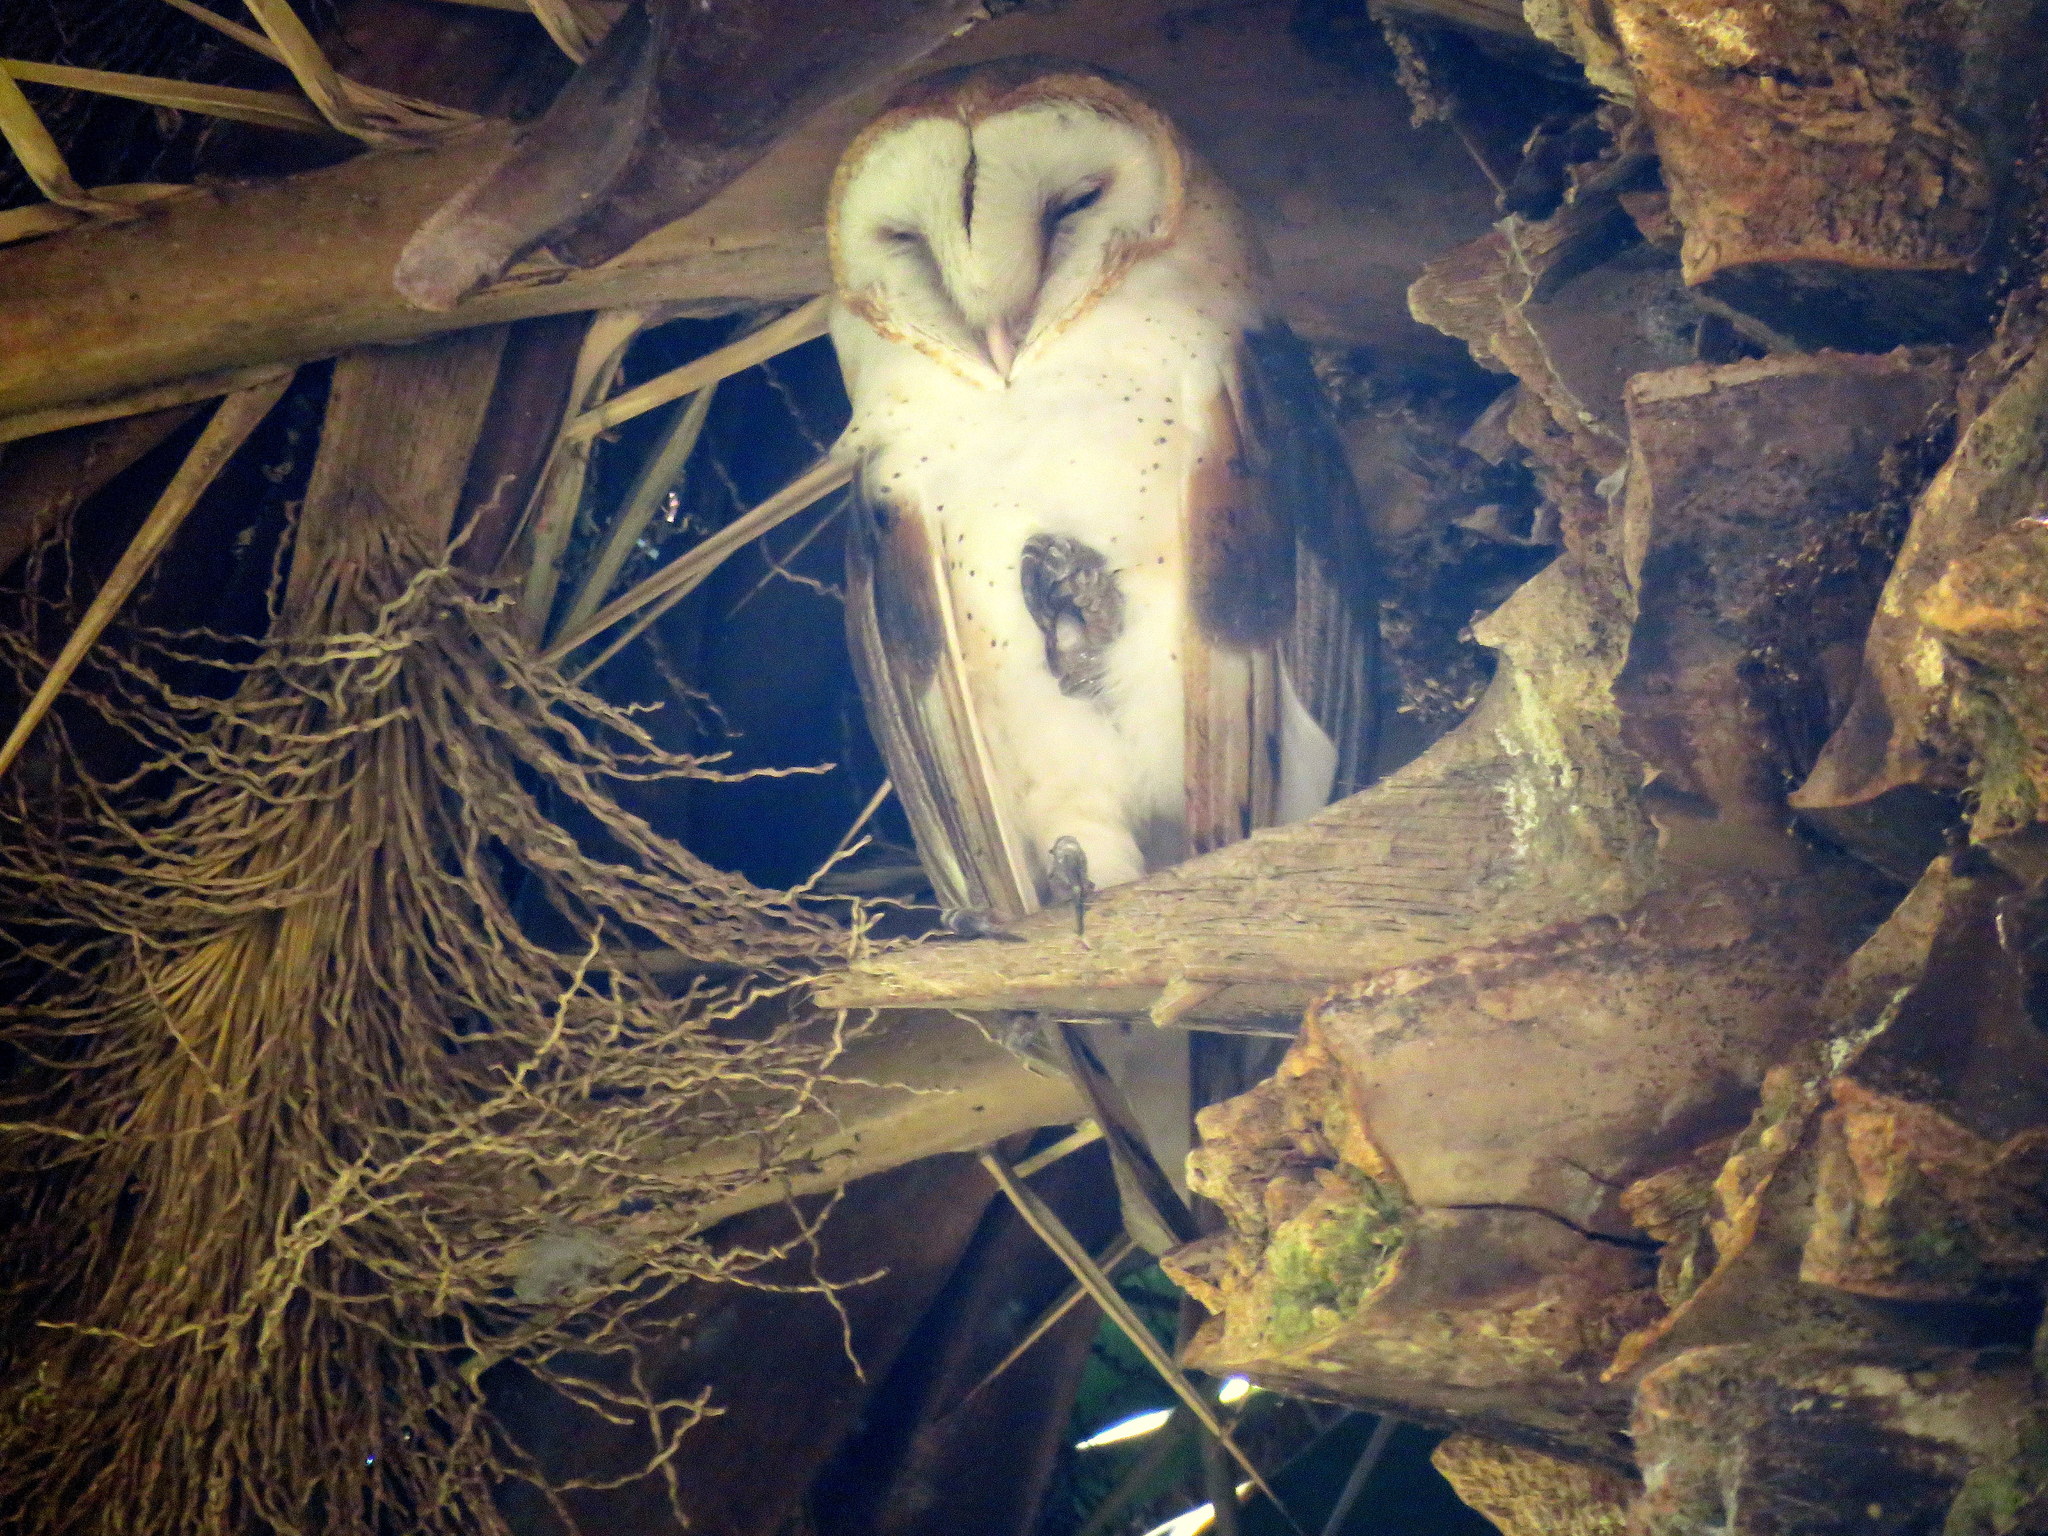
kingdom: Animalia
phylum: Chordata
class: Aves
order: Strigiformes
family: Tytonidae
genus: Tyto
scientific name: Tyto alba
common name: Barn owl
